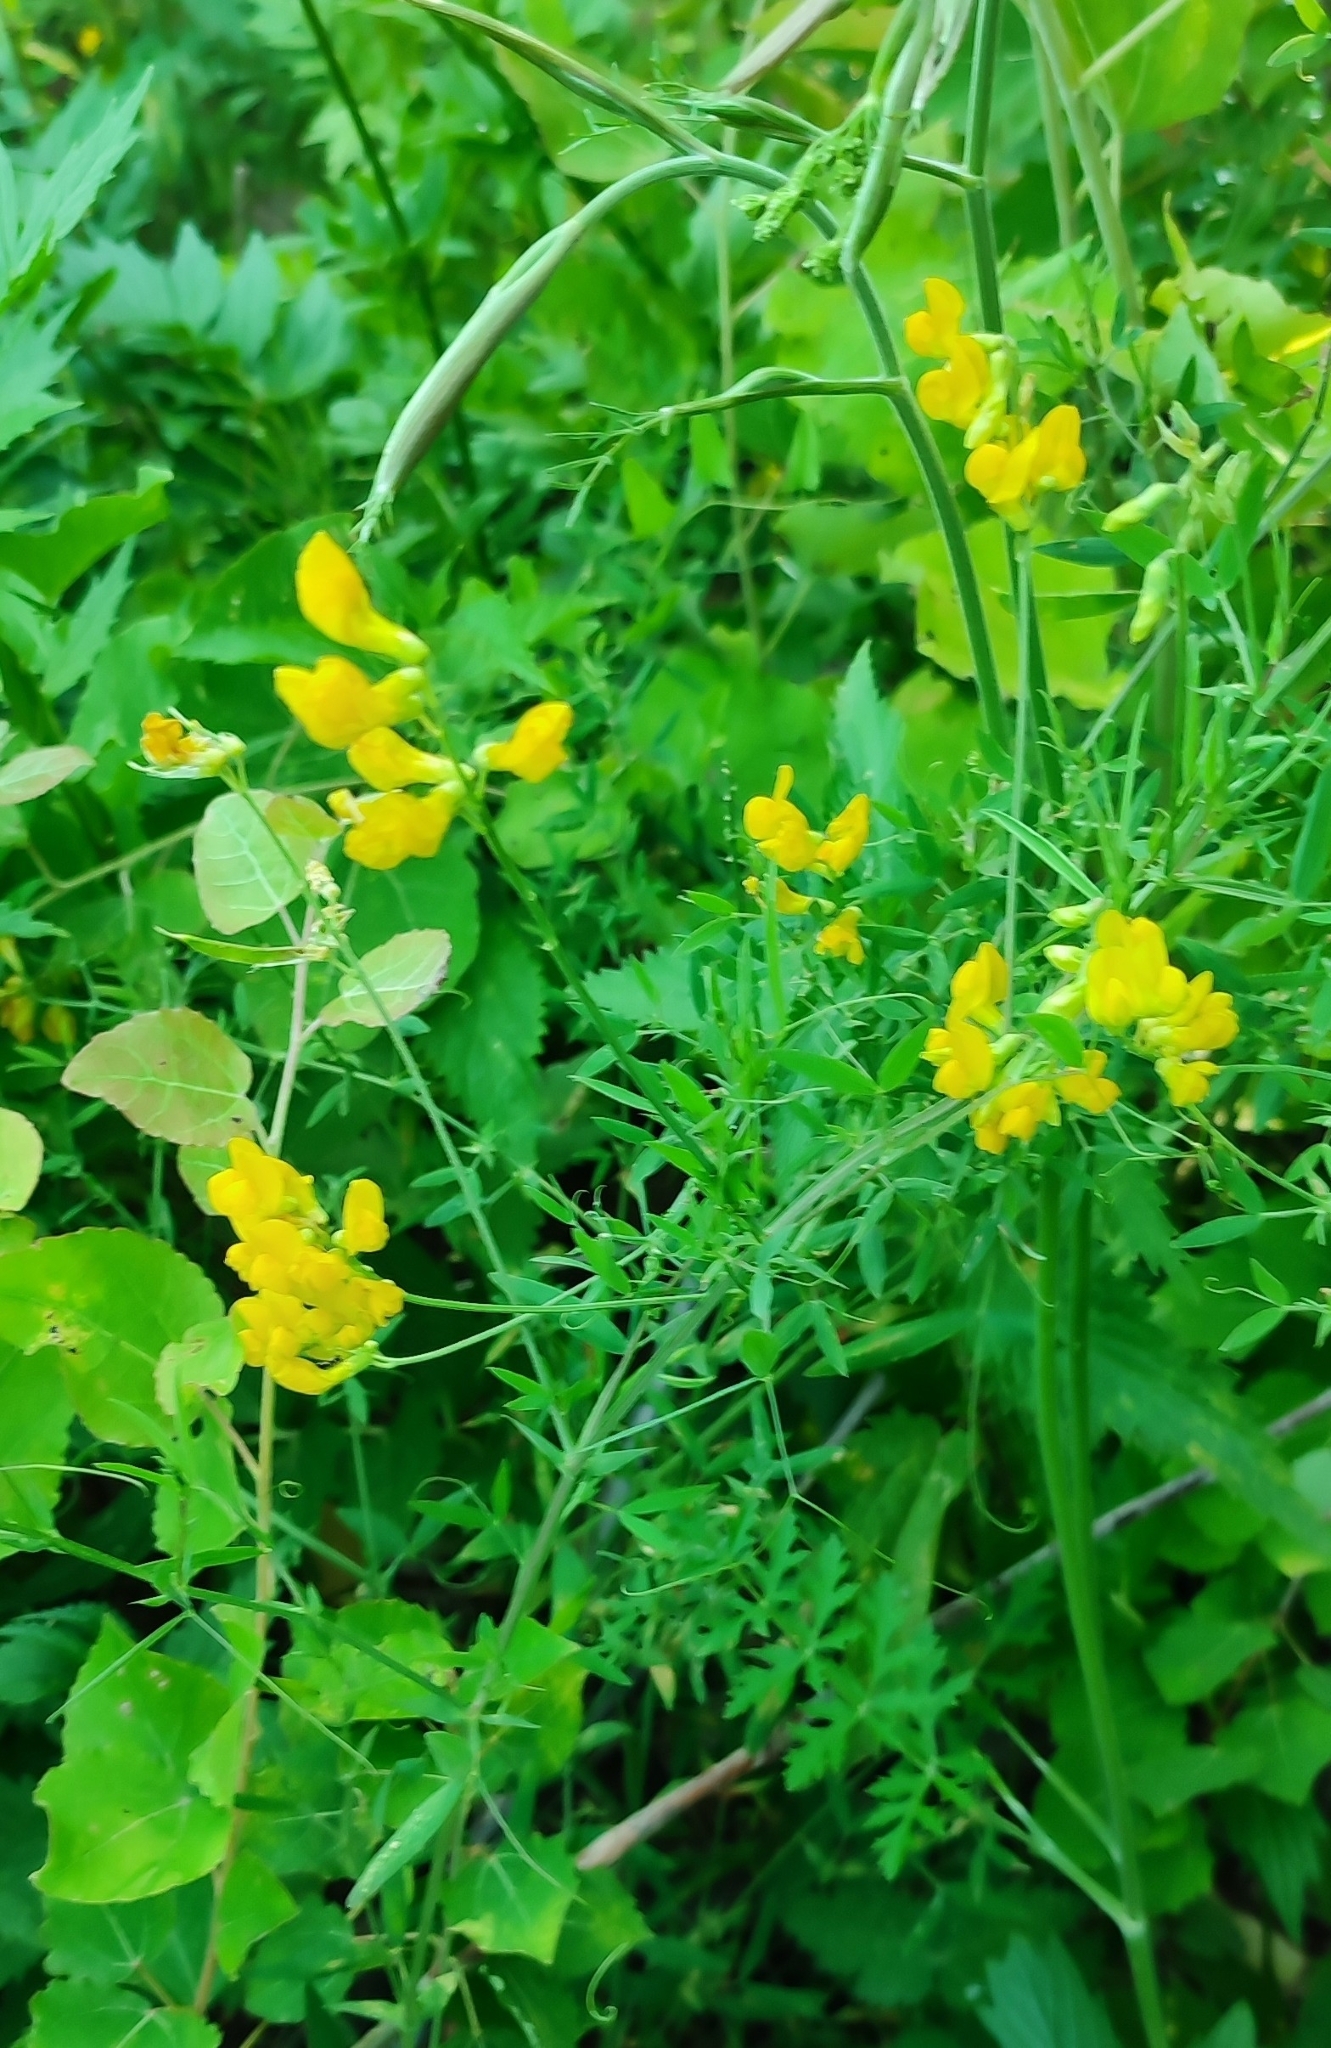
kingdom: Plantae
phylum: Tracheophyta
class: Magnoliopsida
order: Fabales
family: Fabaceae
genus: Lathyrus
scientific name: Lathyrus pratensis
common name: Meadow vetchling
